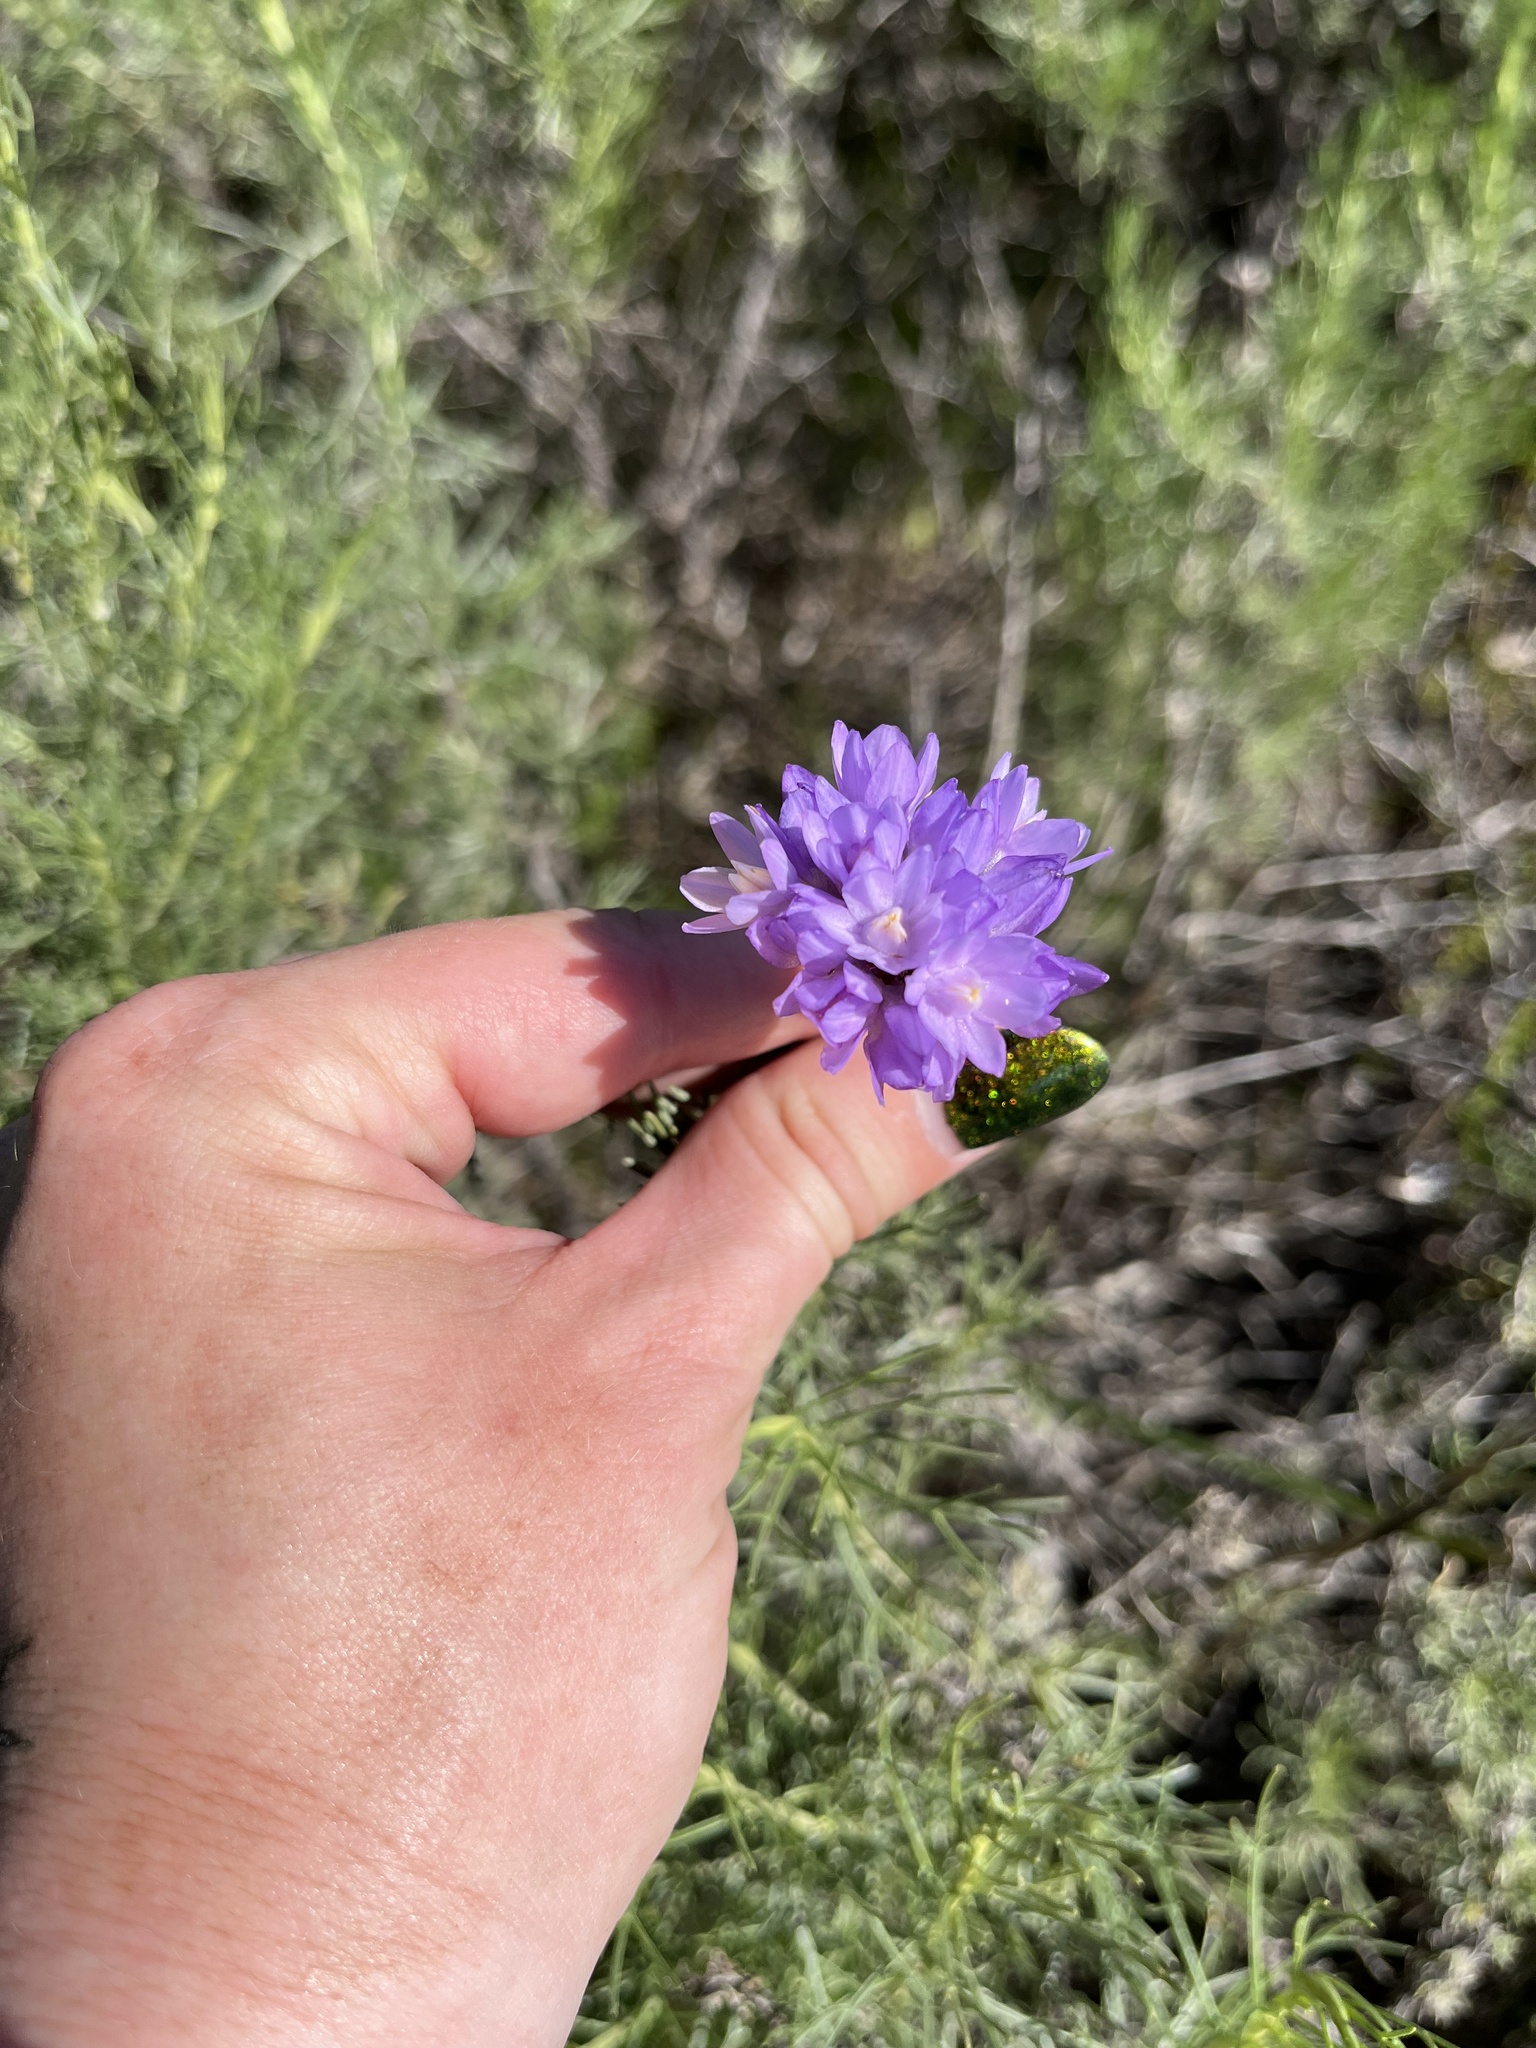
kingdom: Plantae
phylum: Tracheophyta
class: Liliopsida
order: Asparagales
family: Asparagaceae
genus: Dipterostemon
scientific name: Dipterostemon capitatus
